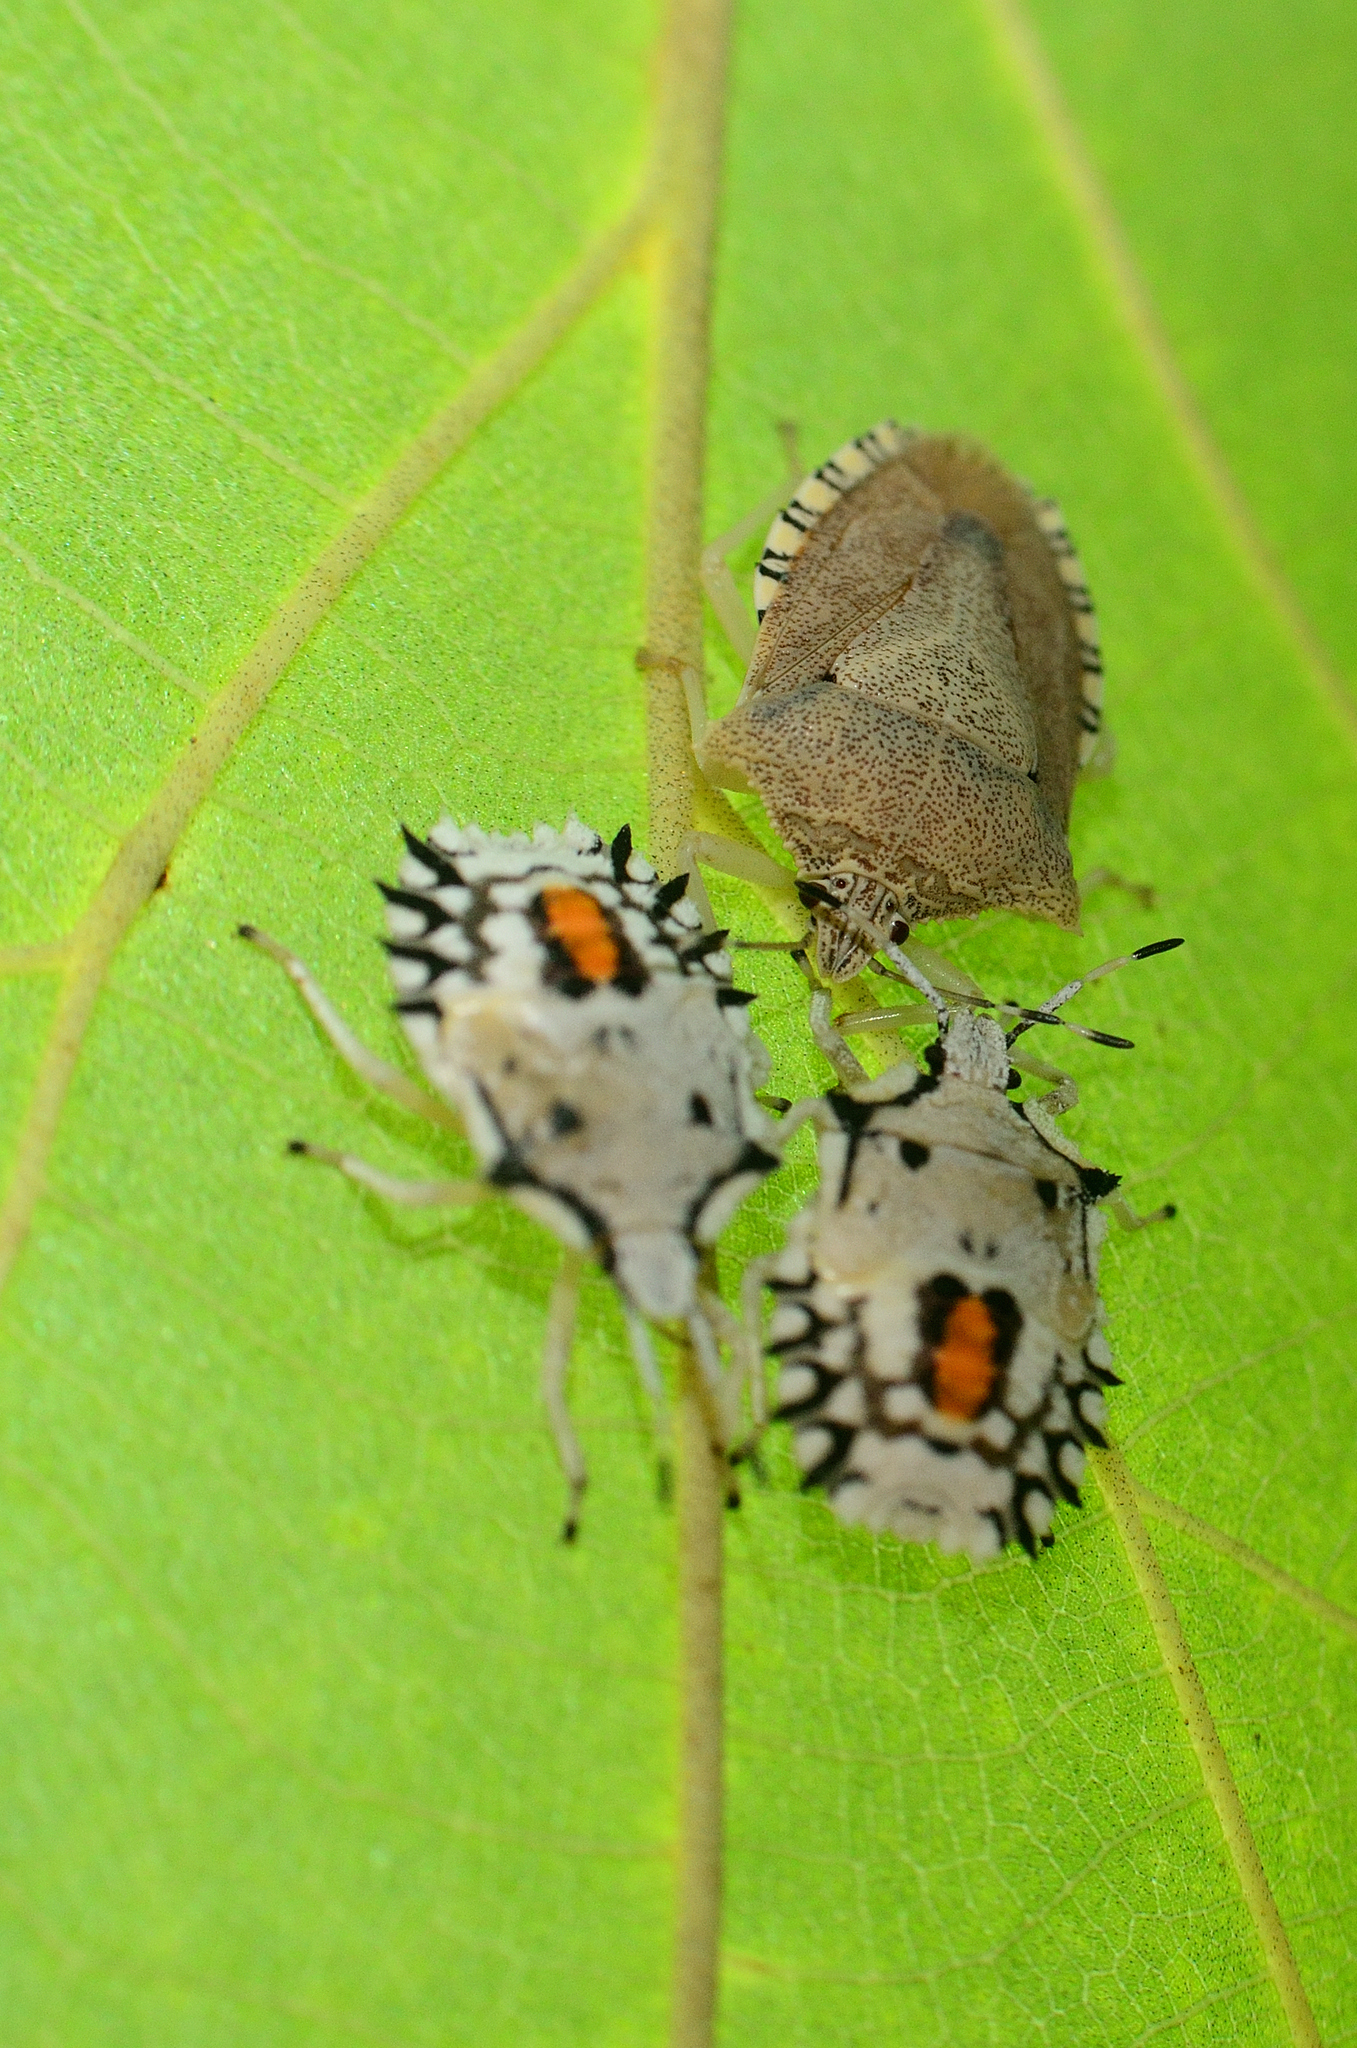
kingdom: Animalia
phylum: Arthropoda
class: Insecta
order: Hemiptera
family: Pentatomidae
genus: Degonetus
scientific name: Degonetus serratus
